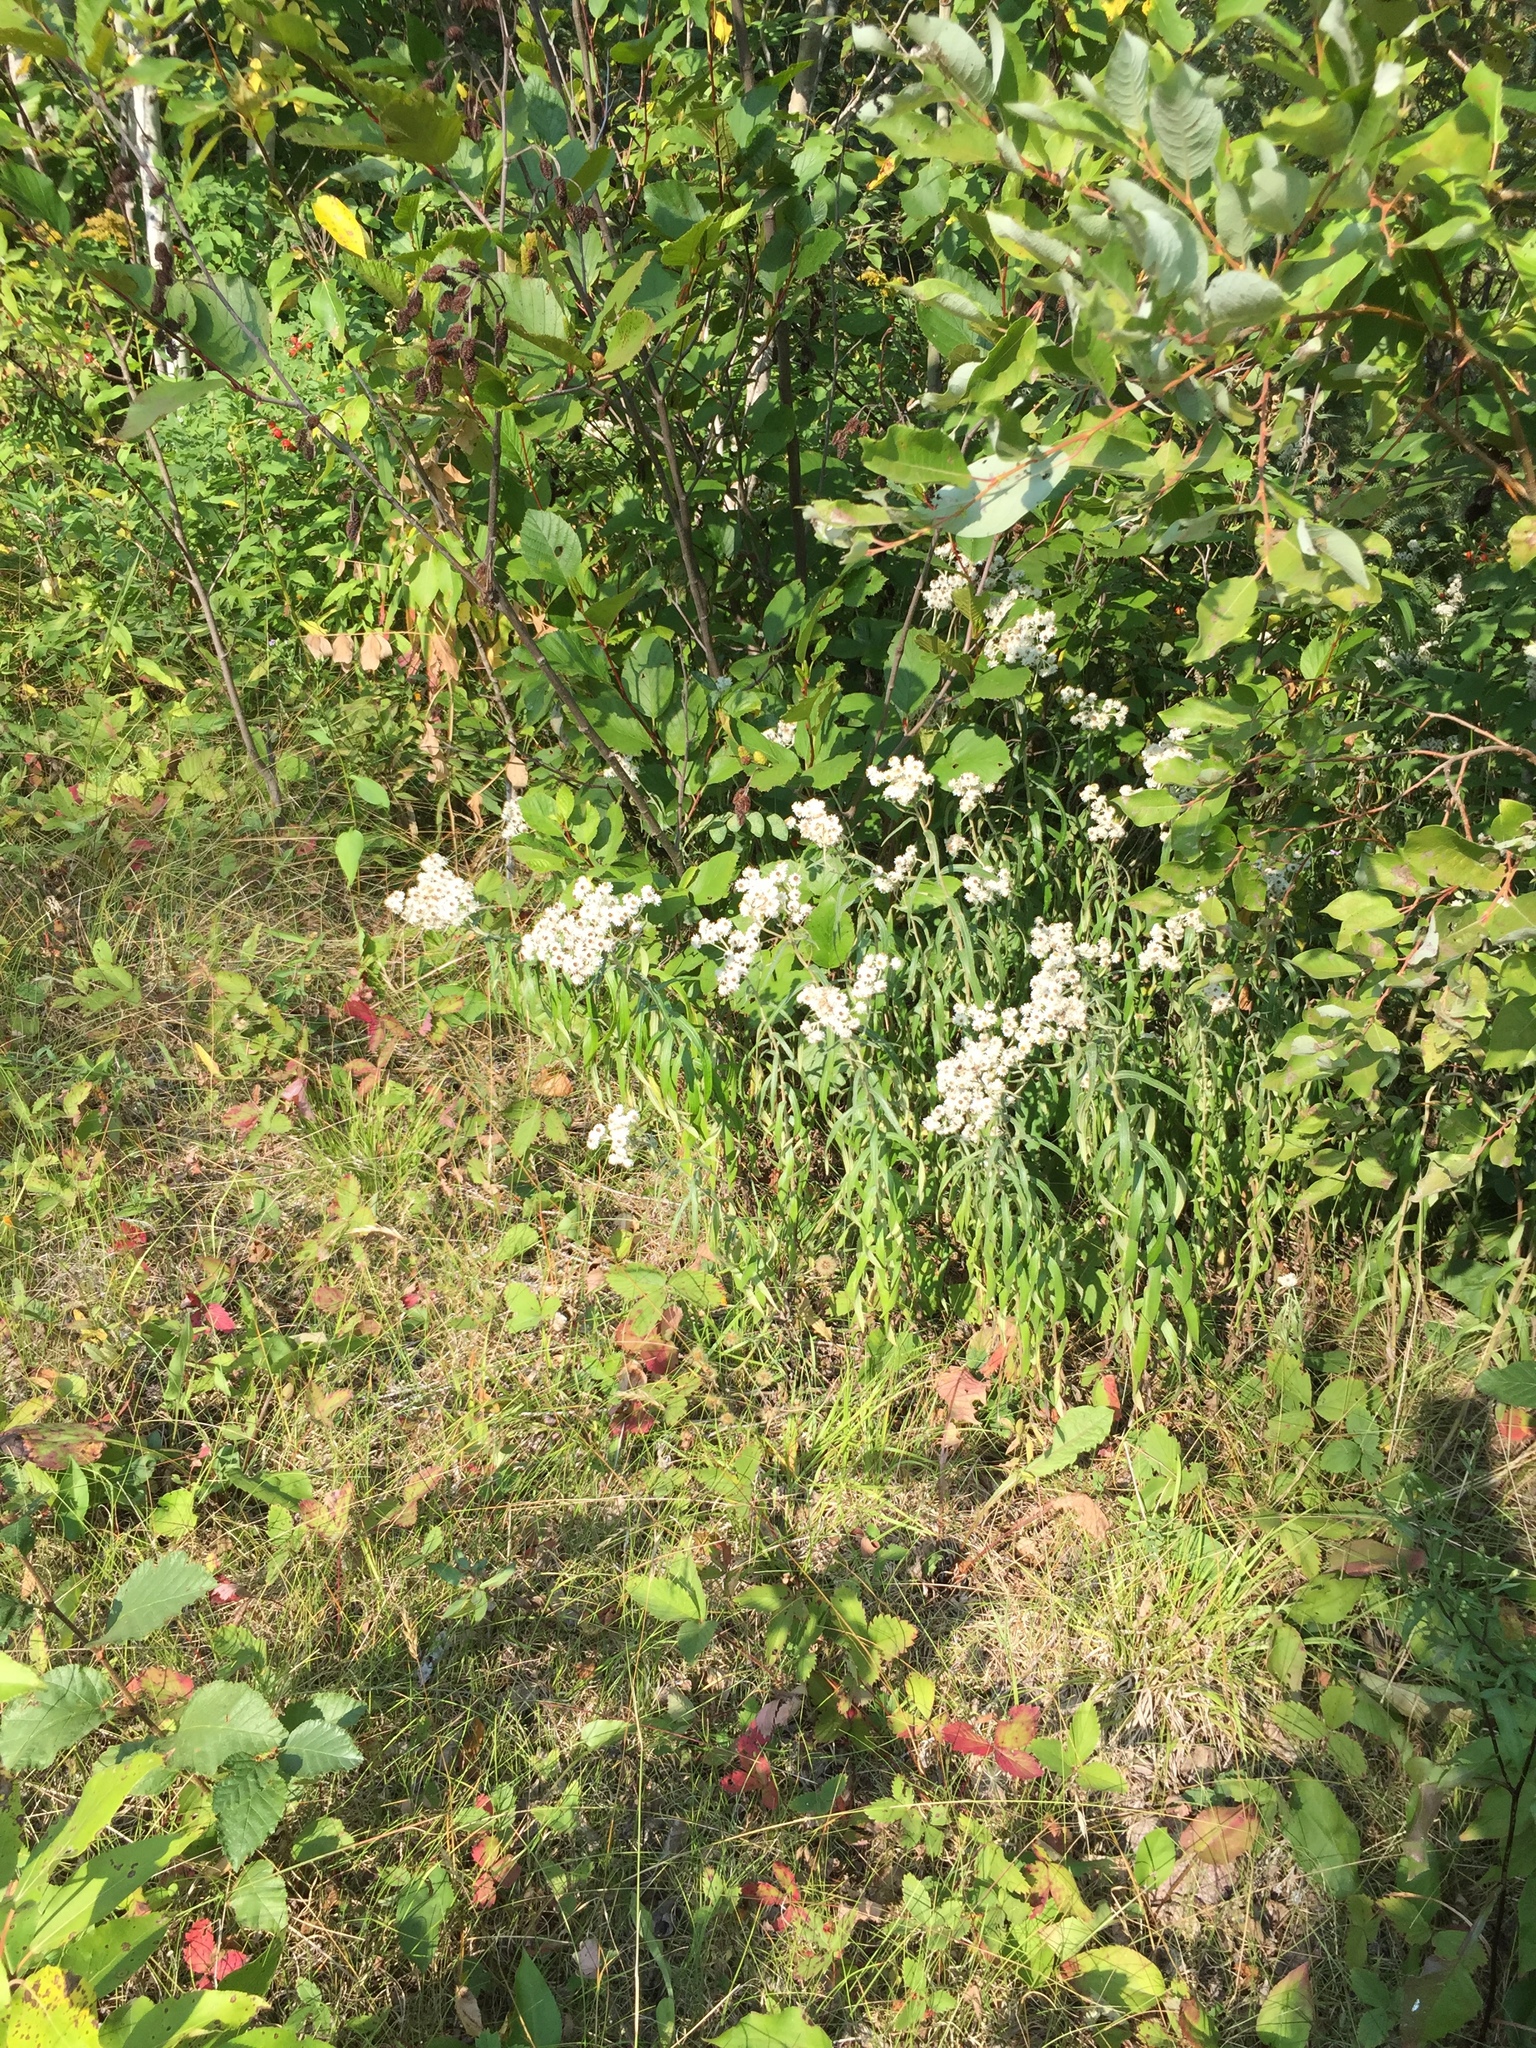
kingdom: Plantae
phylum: Tracheophyta
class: Magnoliopsida
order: Asterales
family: Asteraceae
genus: Anaphalis
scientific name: Anaphalis margaritacea
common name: Pearly everlasting
